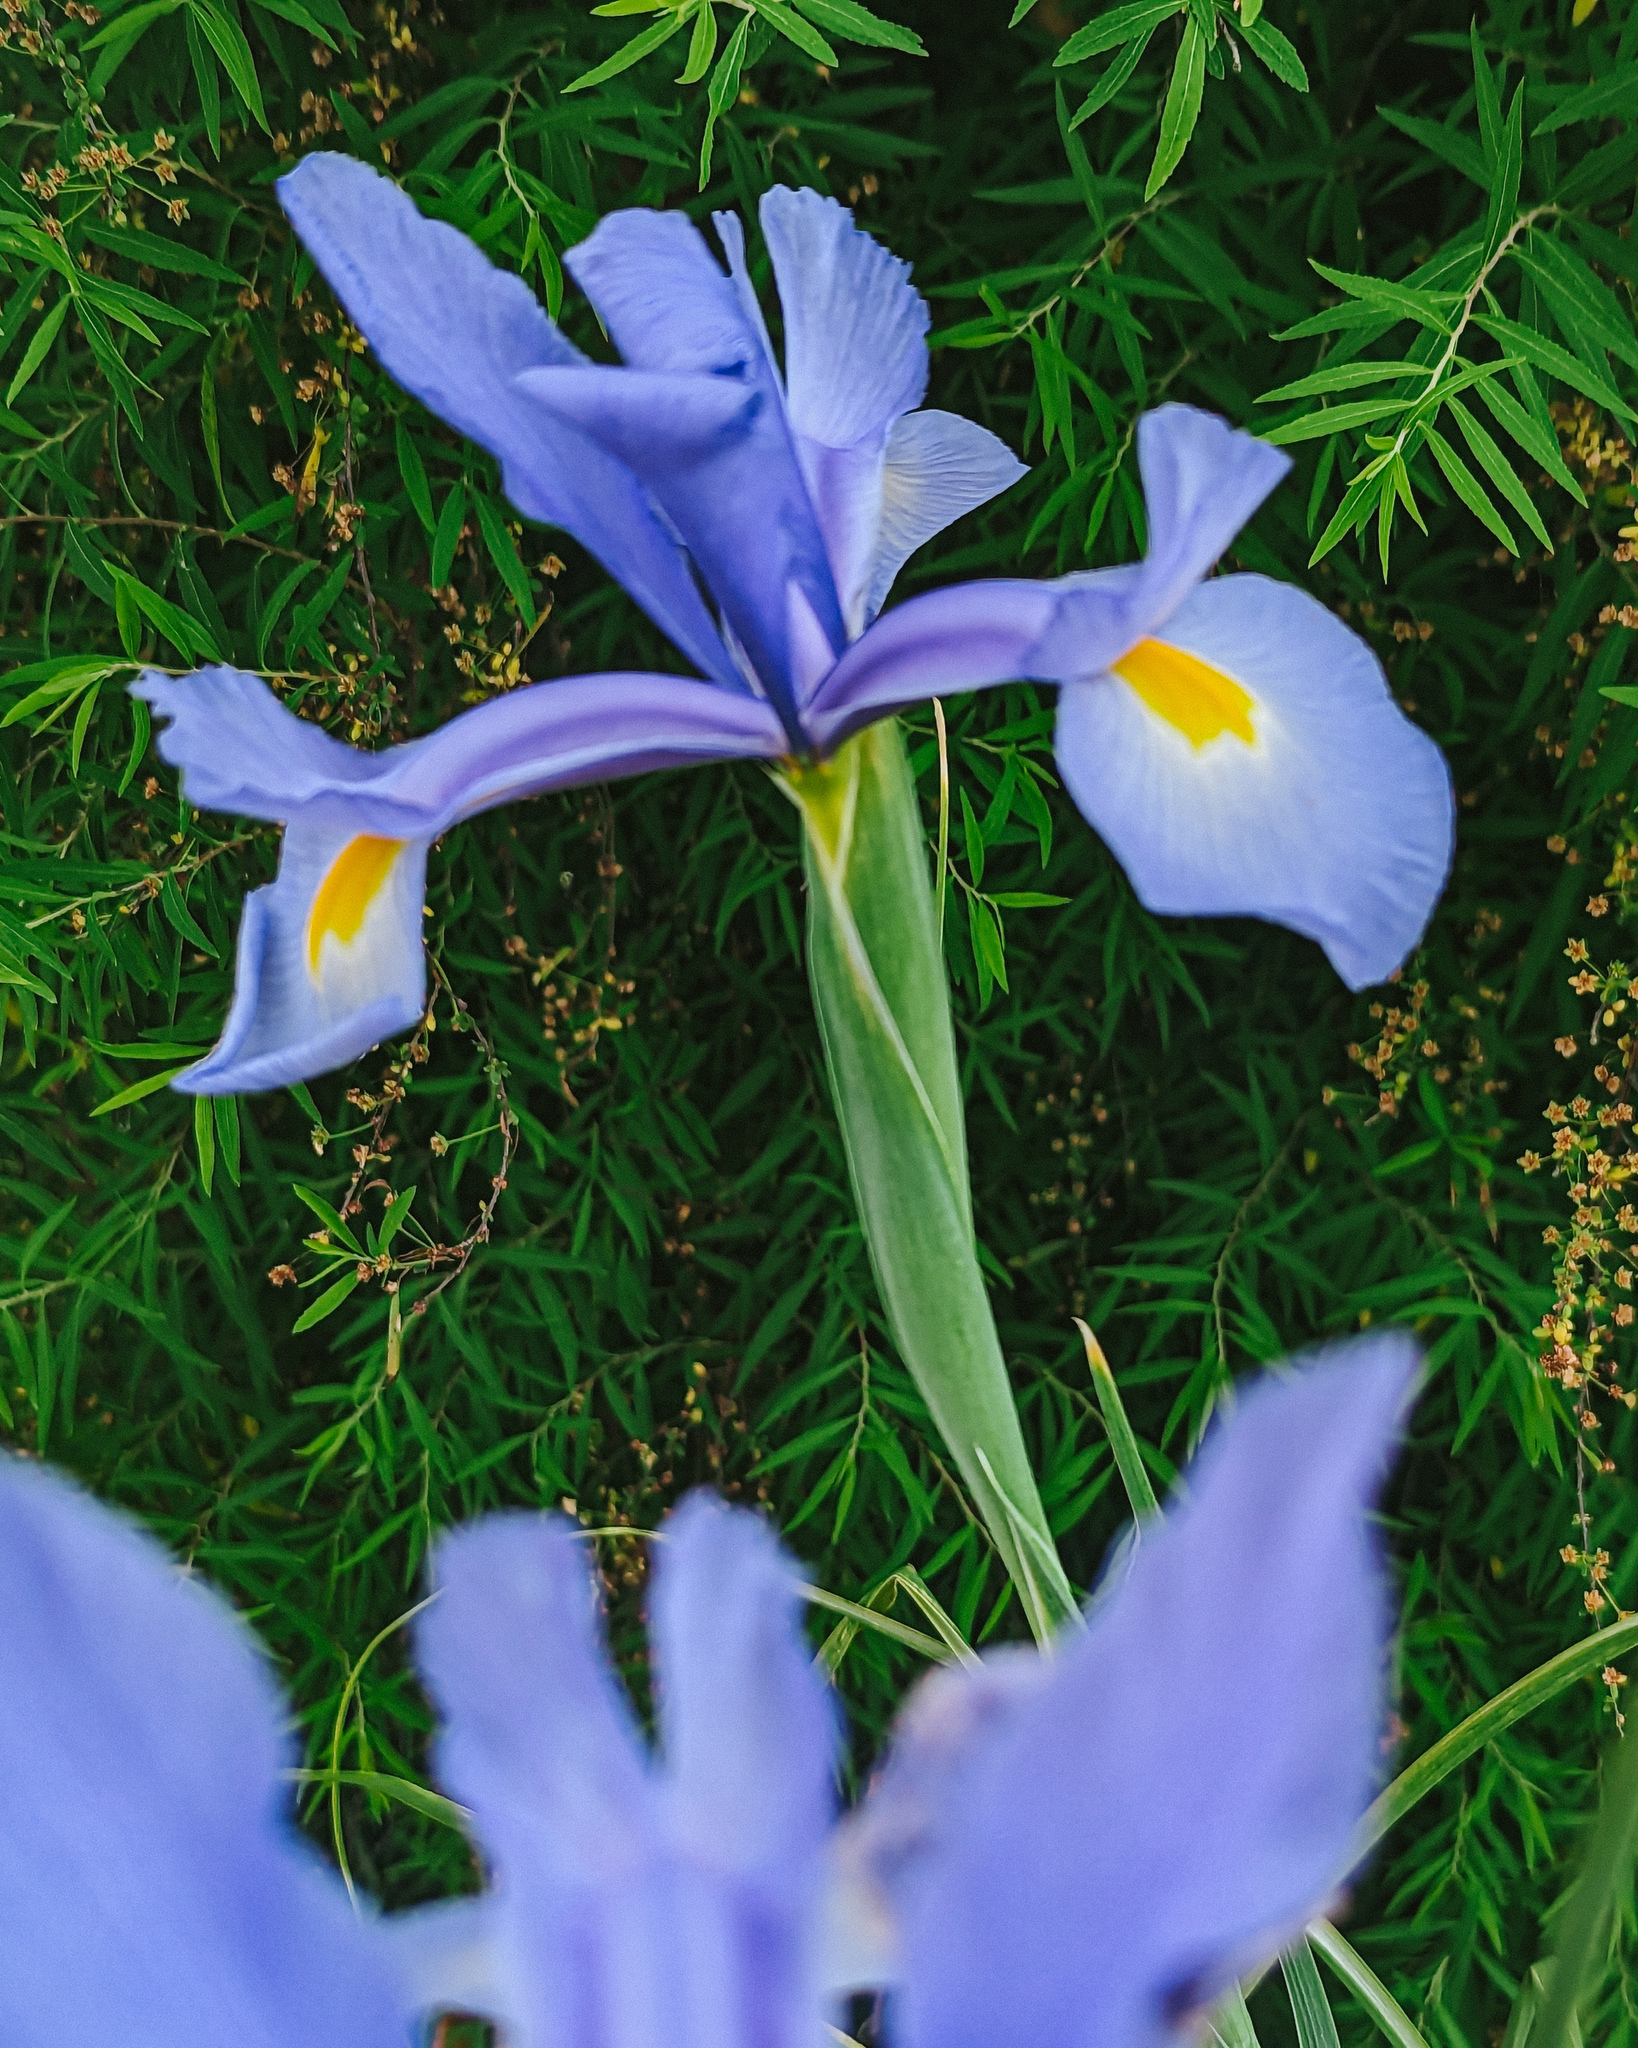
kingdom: Plantae
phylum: Tracheophyta
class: Liliopsida
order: Asparagales
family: Iridaceae
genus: Iris
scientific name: Iris xiphium
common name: Spanish iris
